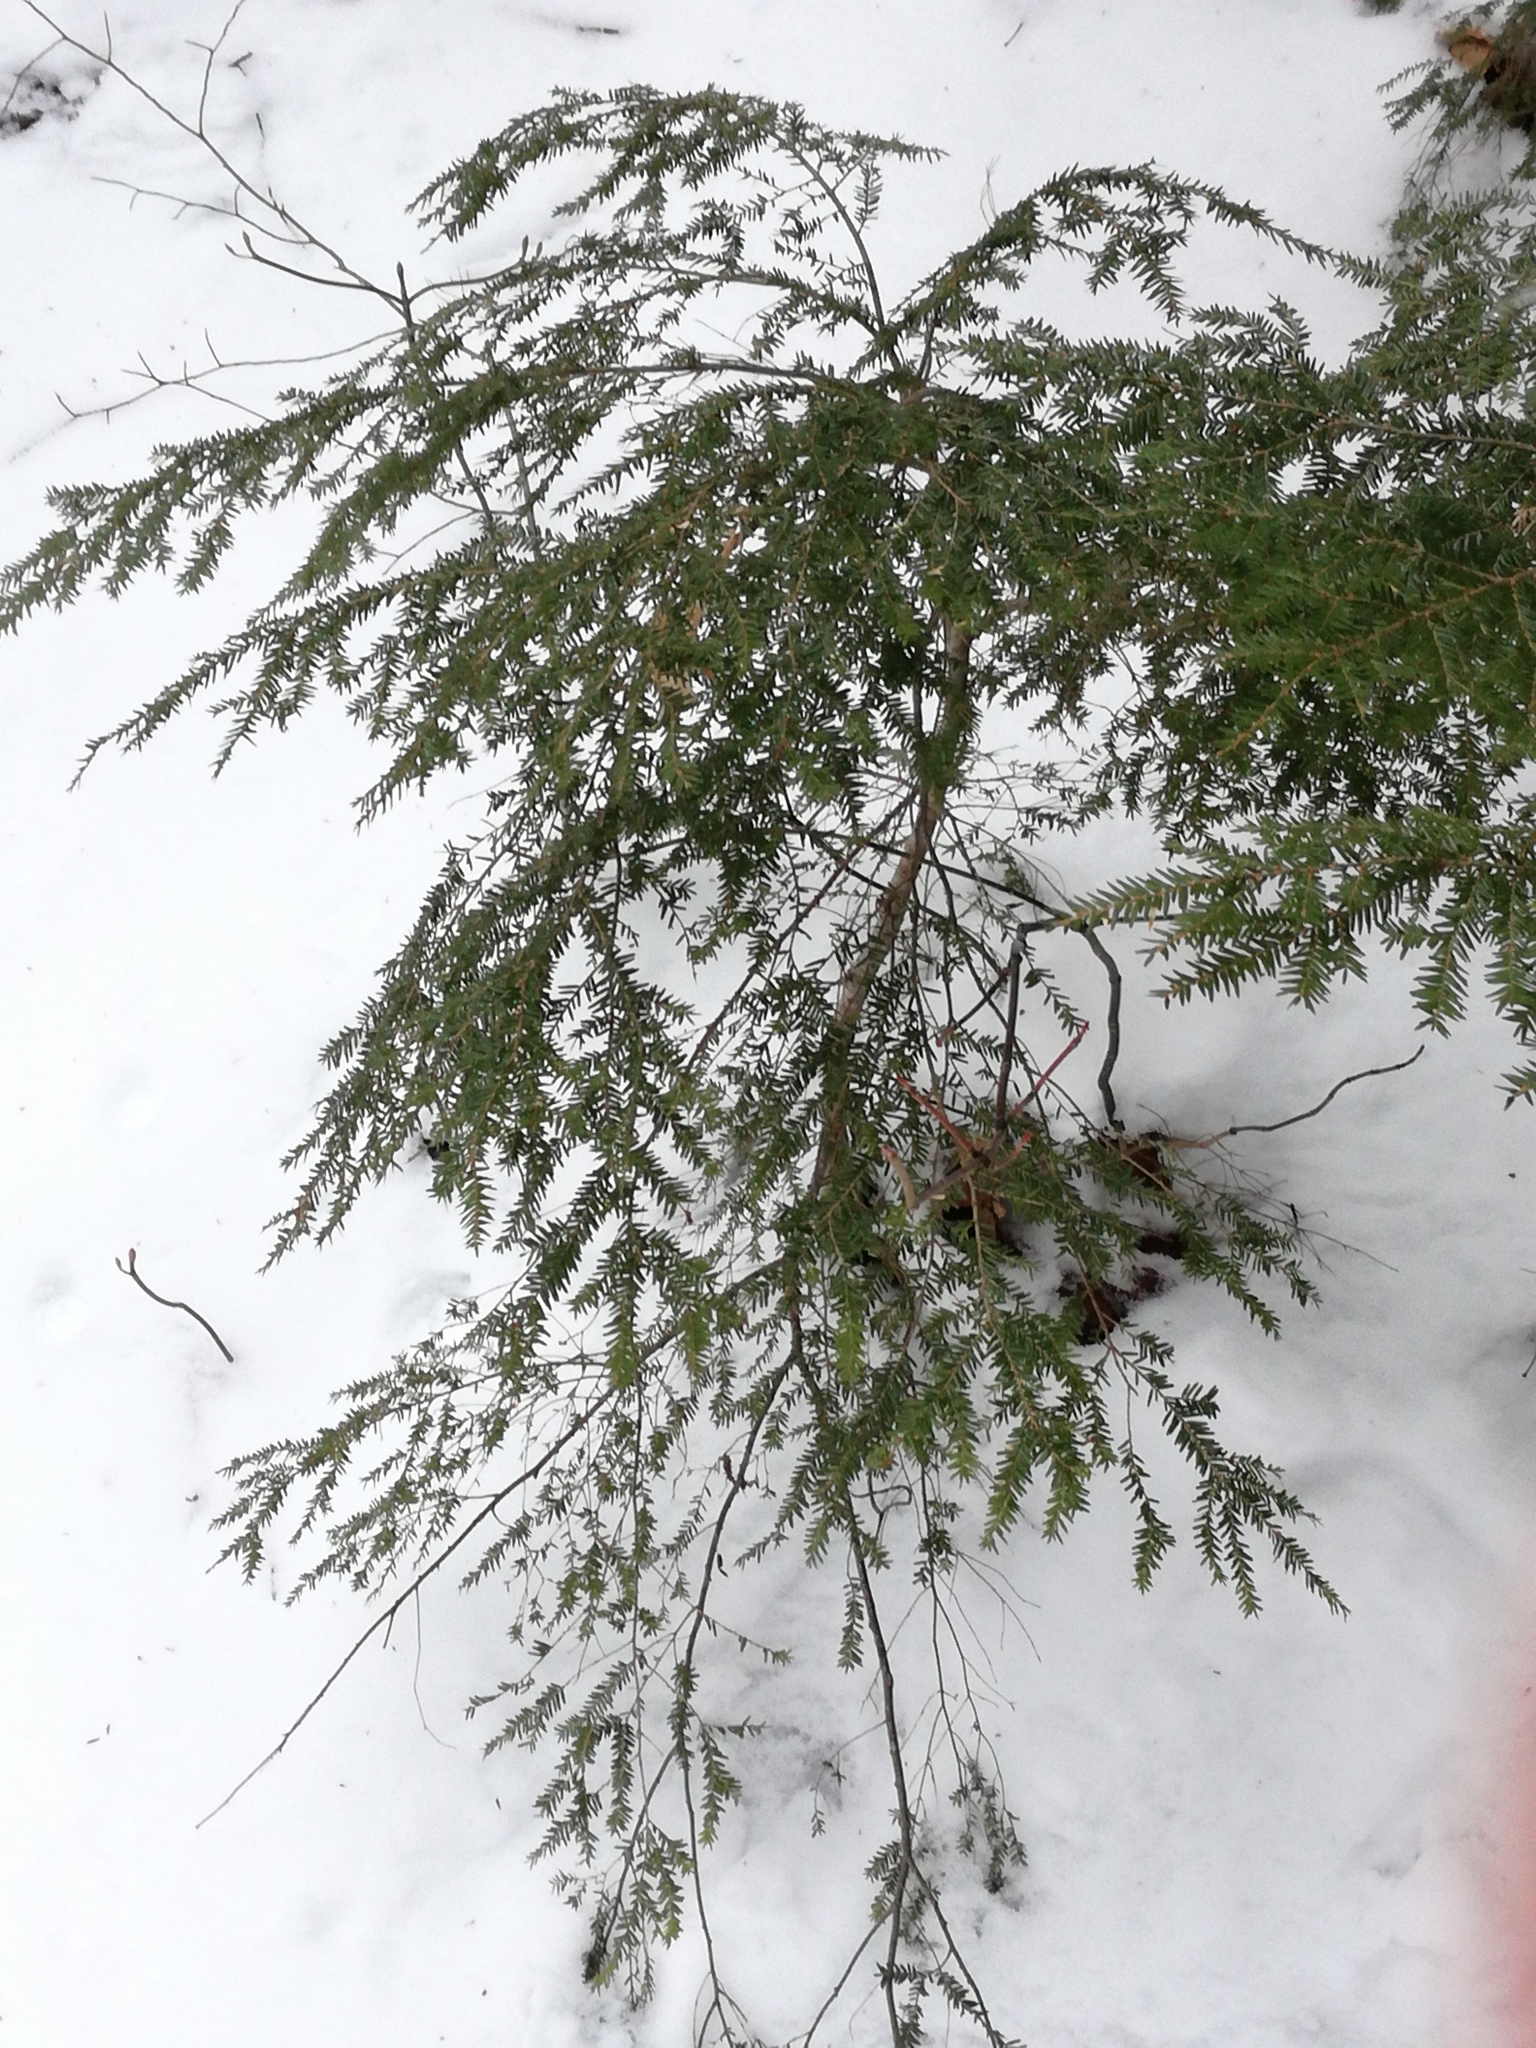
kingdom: Plantae
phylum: Tracheophyta
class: Pinopsida
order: Pinales
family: Pinaceae
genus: Tsuga
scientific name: Tsuga canadensis
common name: Eastern hemlock
